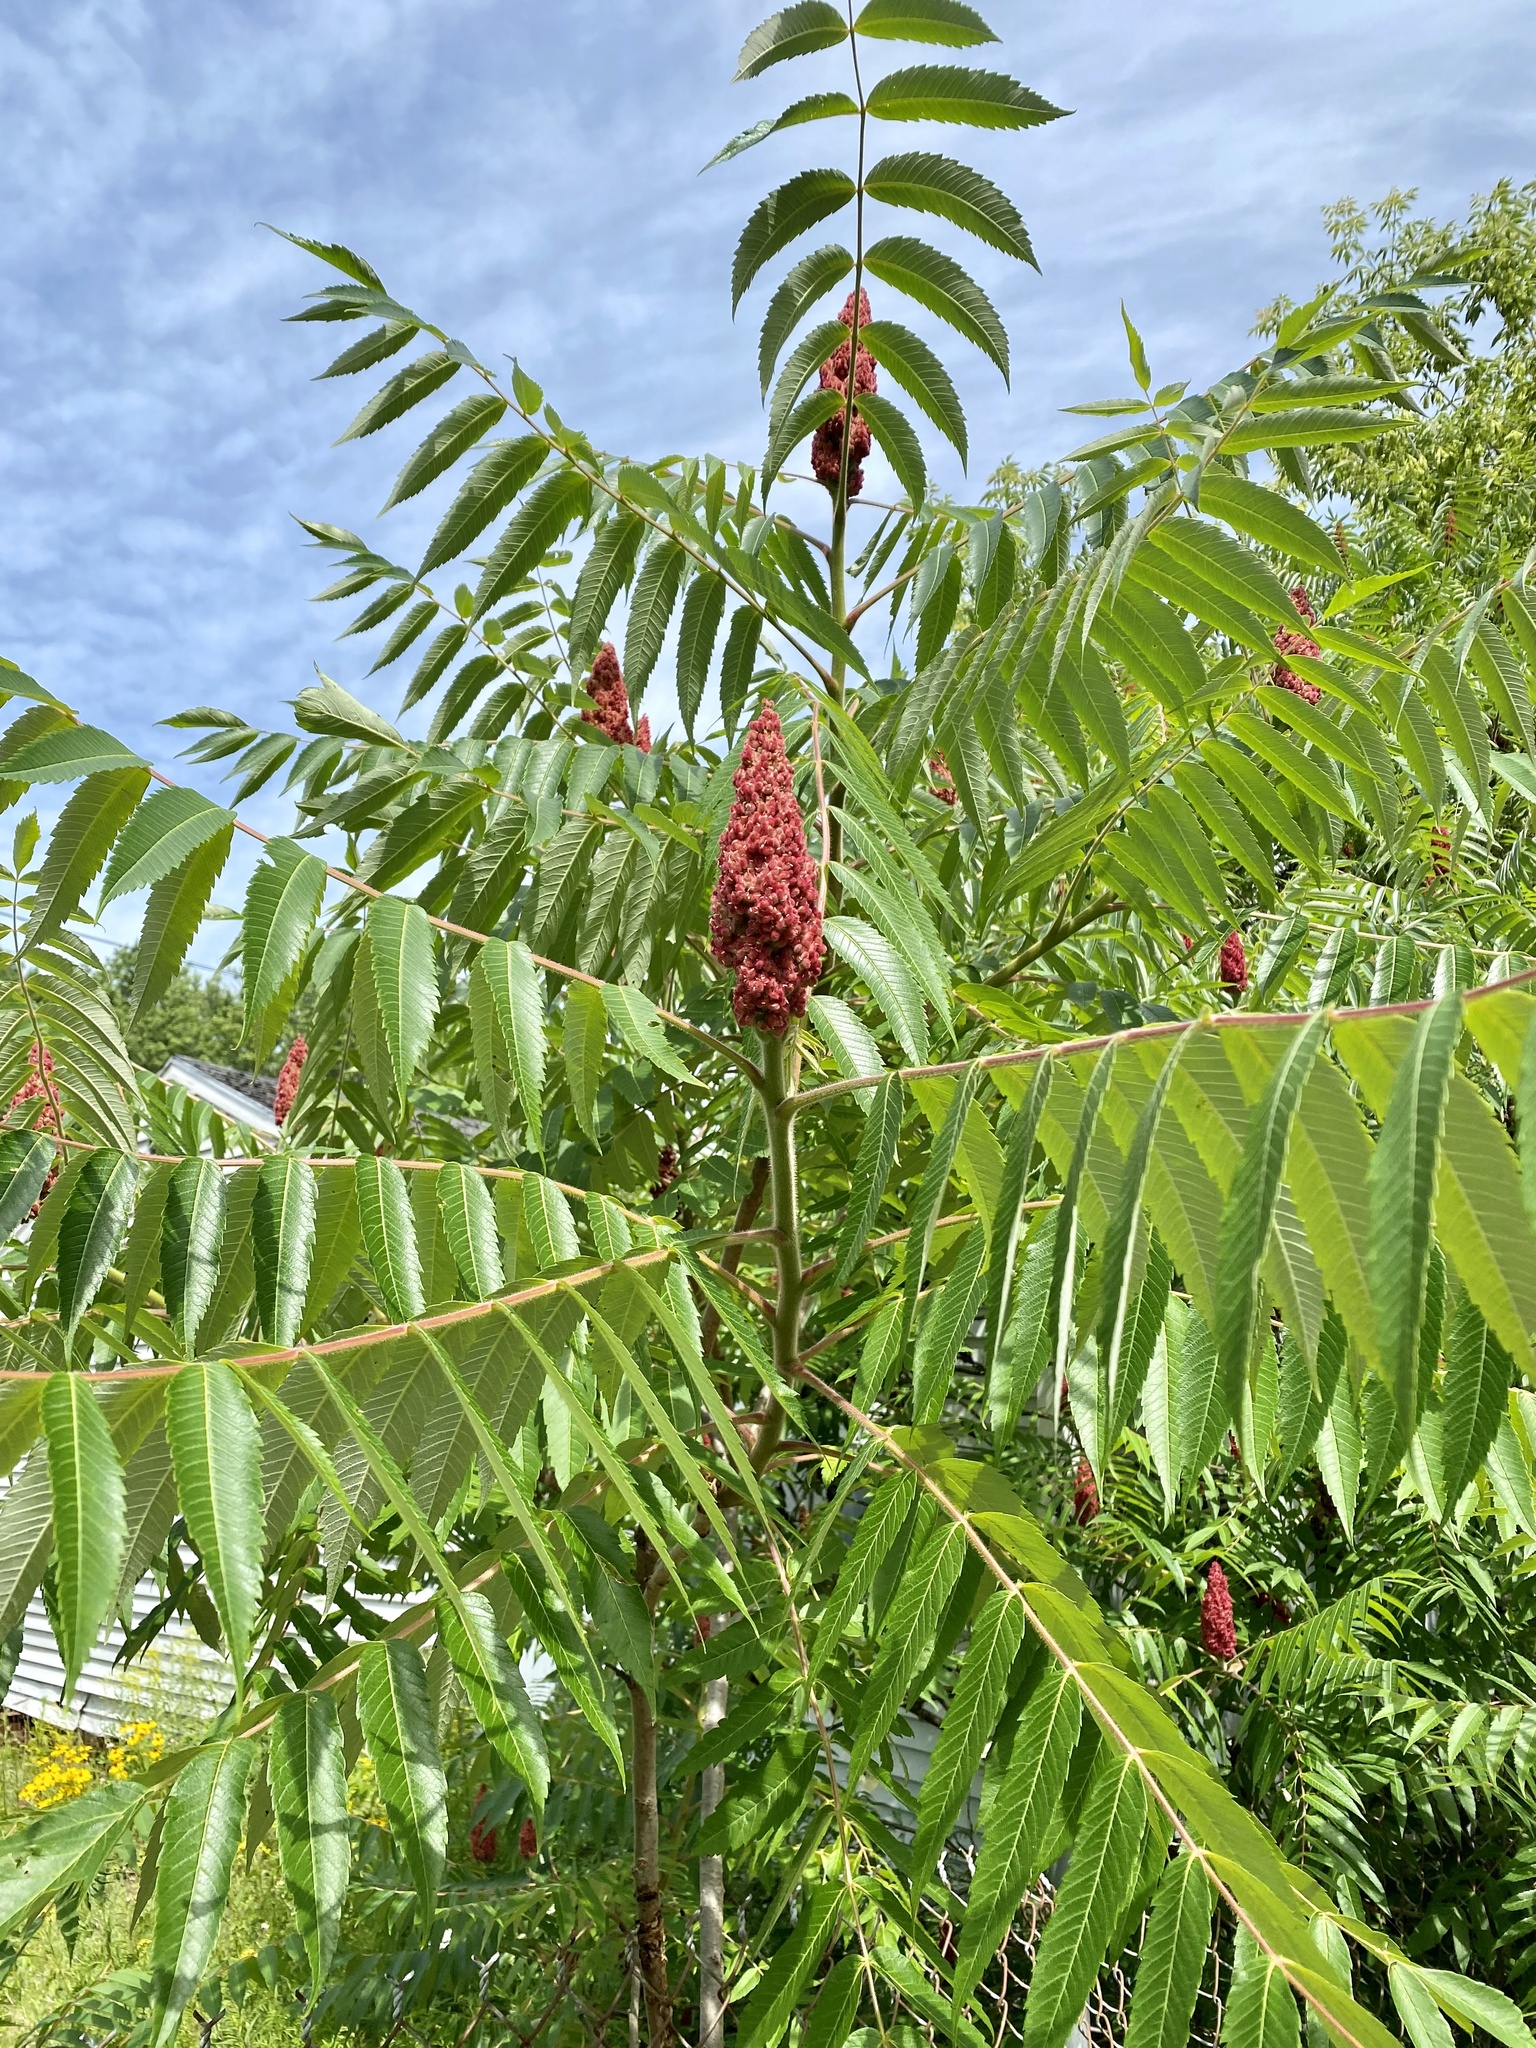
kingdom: Plantae
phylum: Tracheophyta
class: Magnoliopsida
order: Sapindales
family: Anacardiaceae
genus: Rhus
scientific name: Rhus typhina
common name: Staghorn sumac
